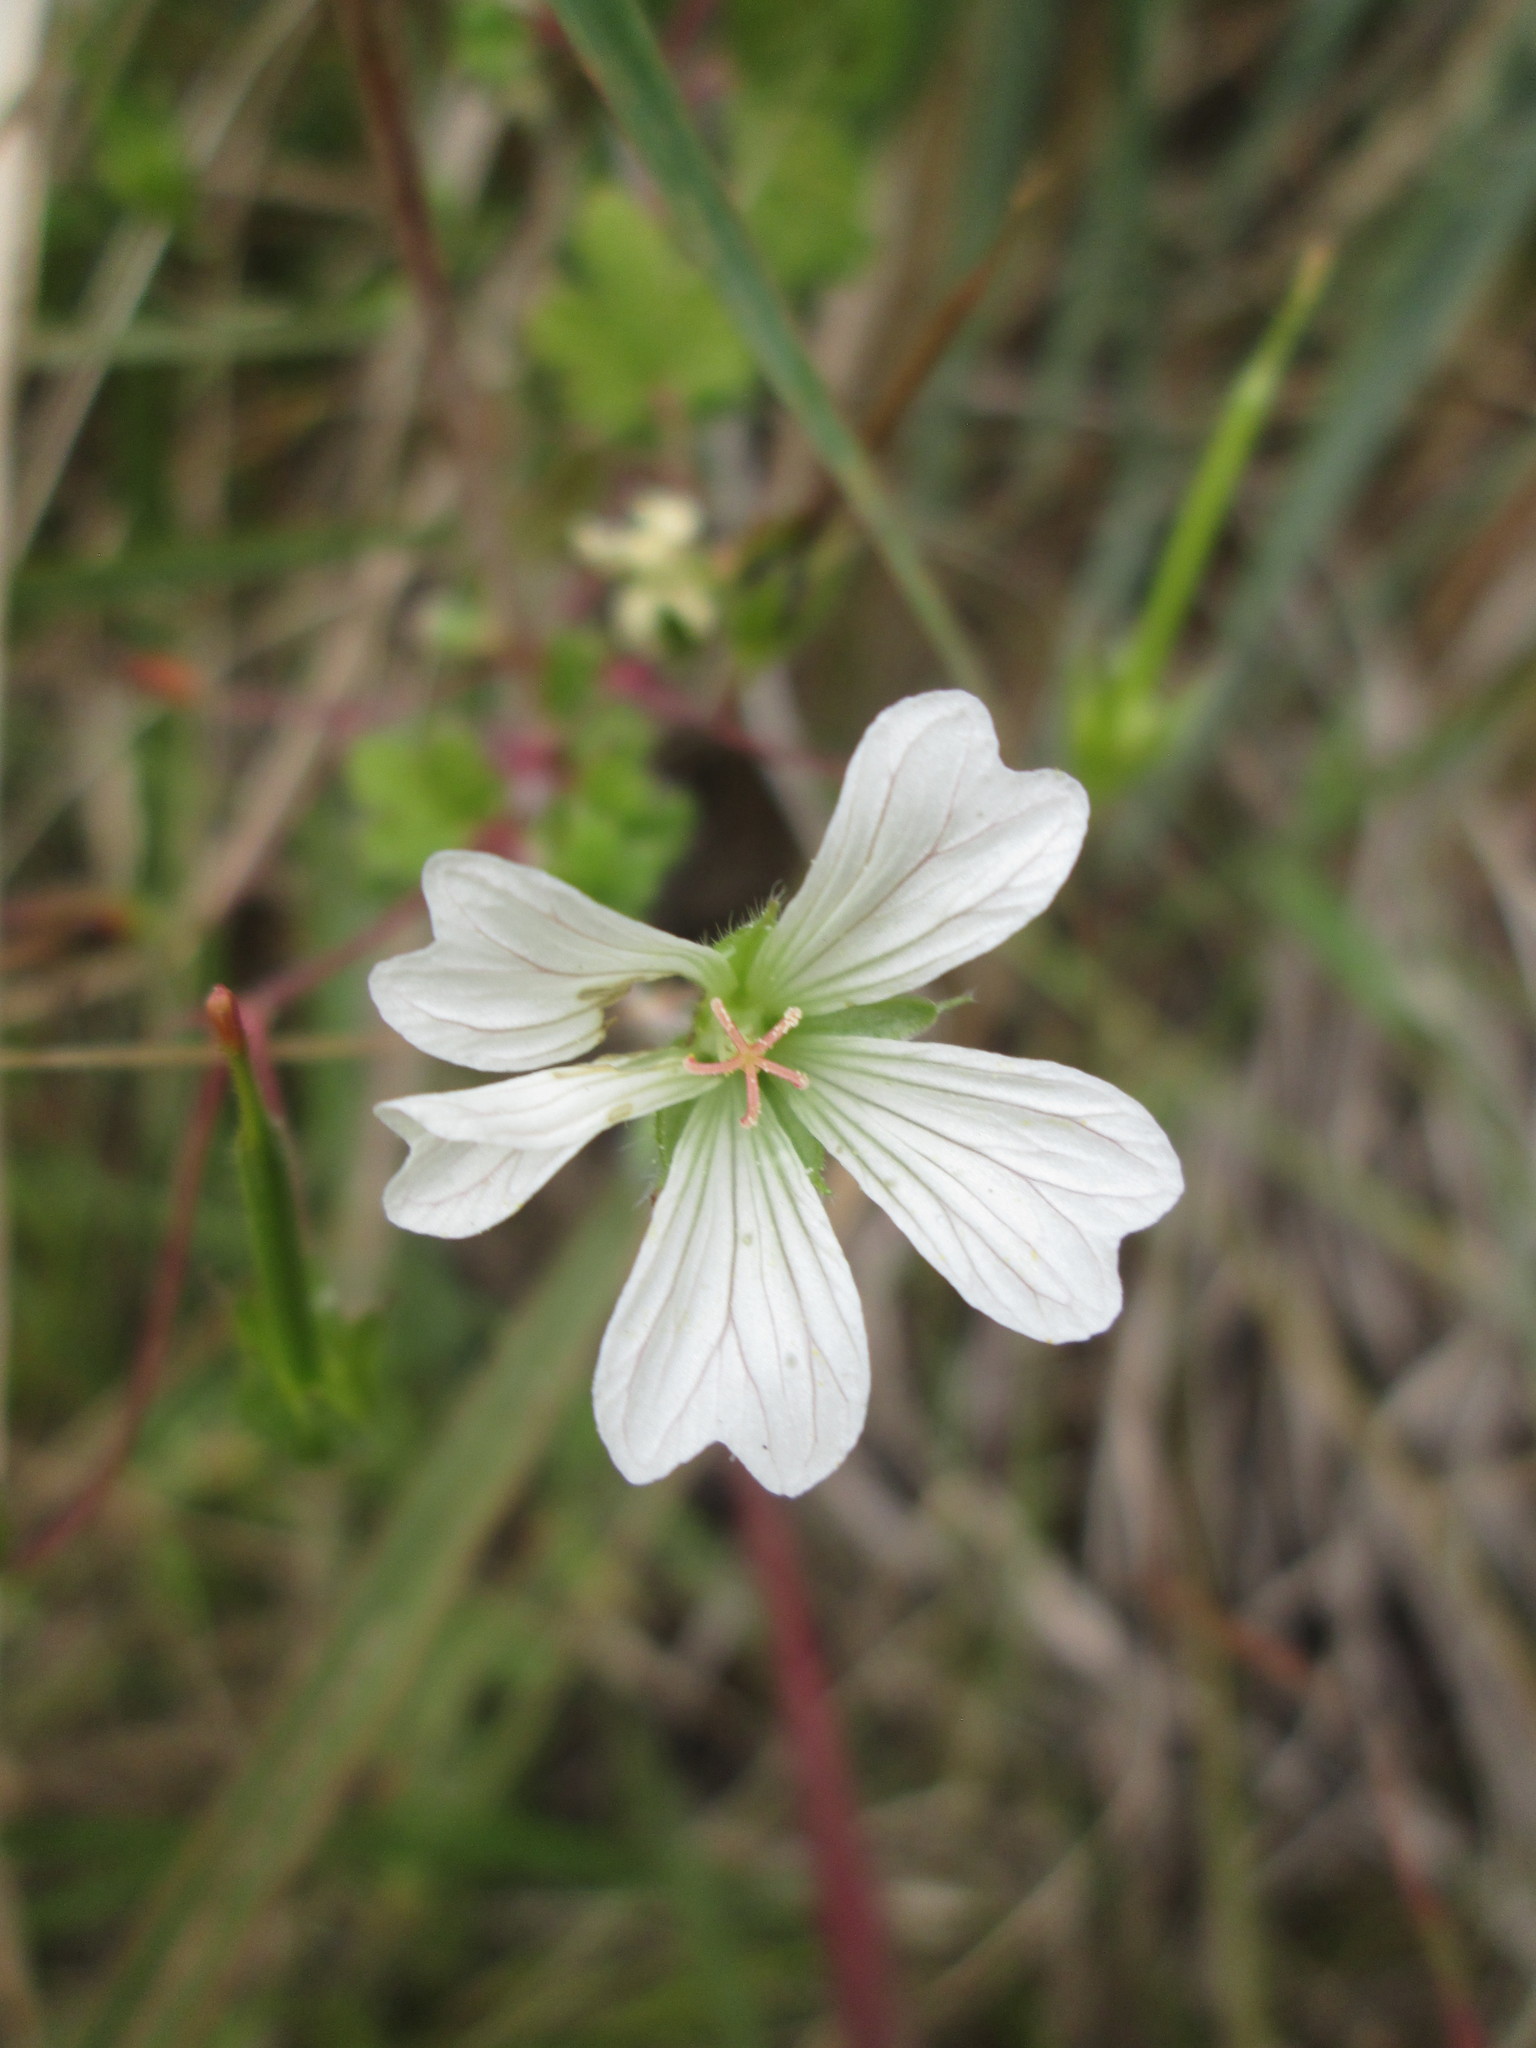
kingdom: Plantae
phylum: Tracheophyta
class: Magnoliopsida
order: Geraniales
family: Geraniaceae
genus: Geranium
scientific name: Geranium wakkerstroomianum
